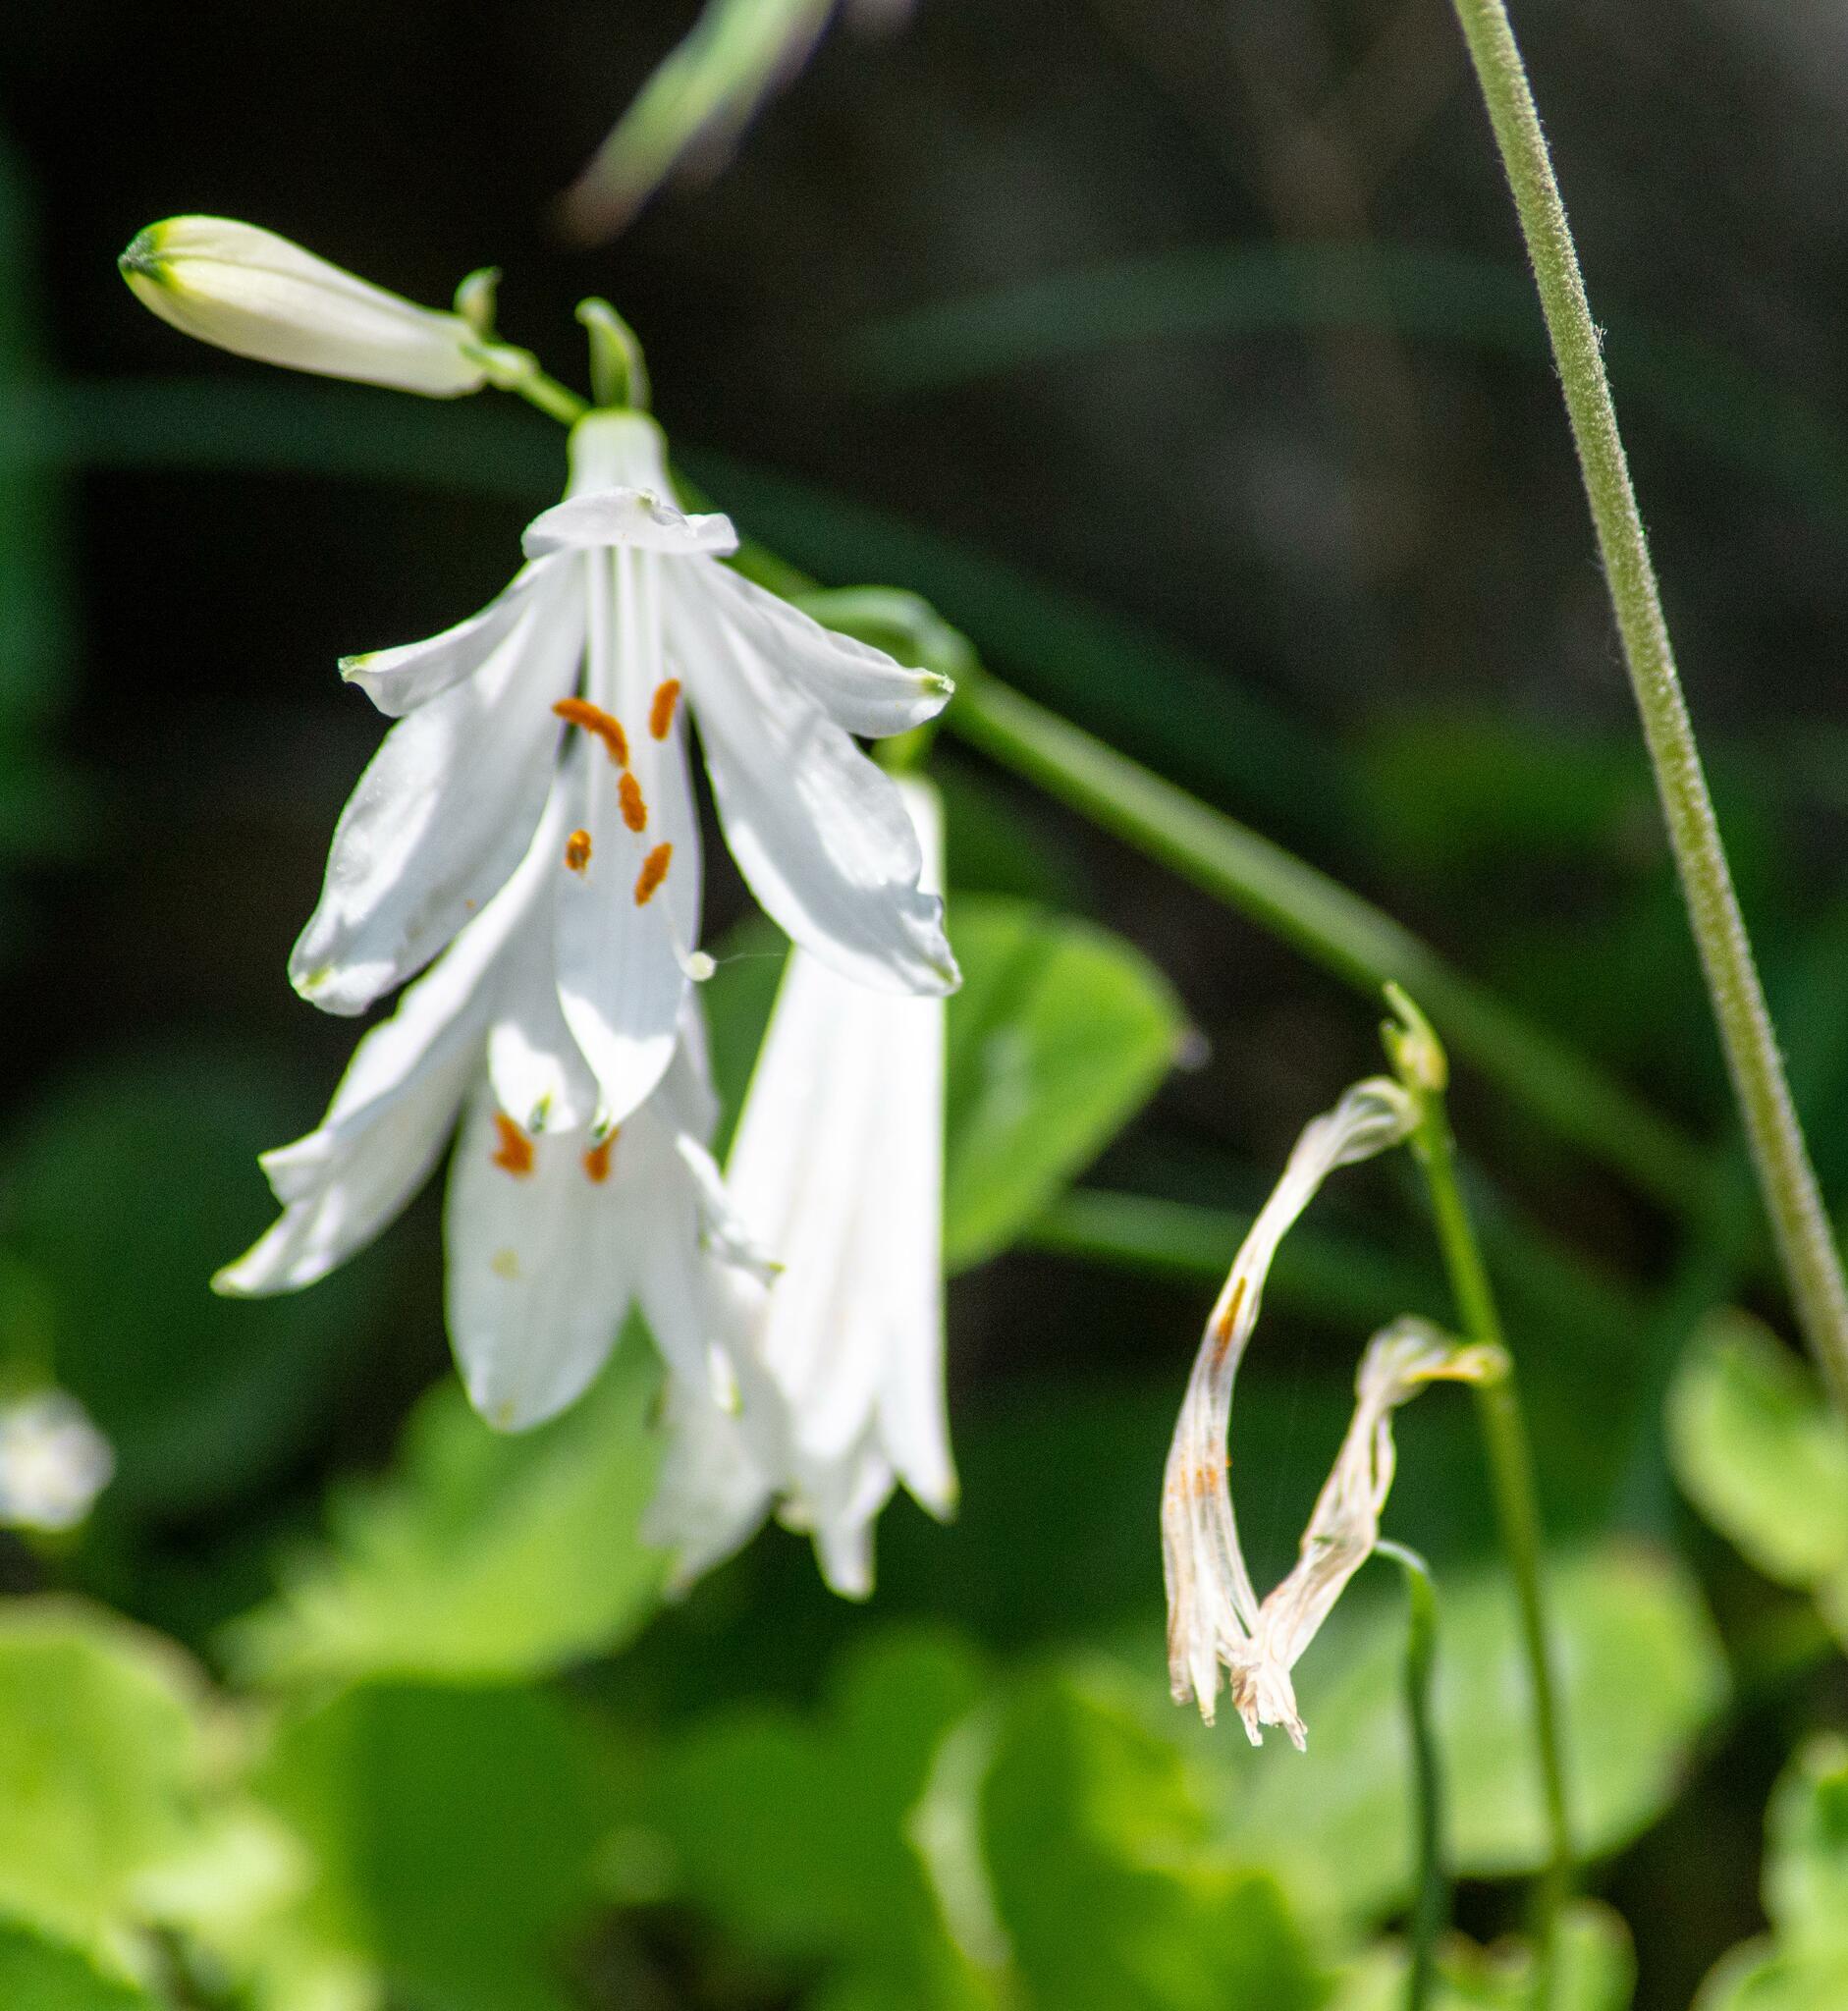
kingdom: Plantae
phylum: Tracheophyta
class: Liliopsida
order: Asparagales
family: Asparagaceae
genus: Paradisea
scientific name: Paradisea liliastrum
